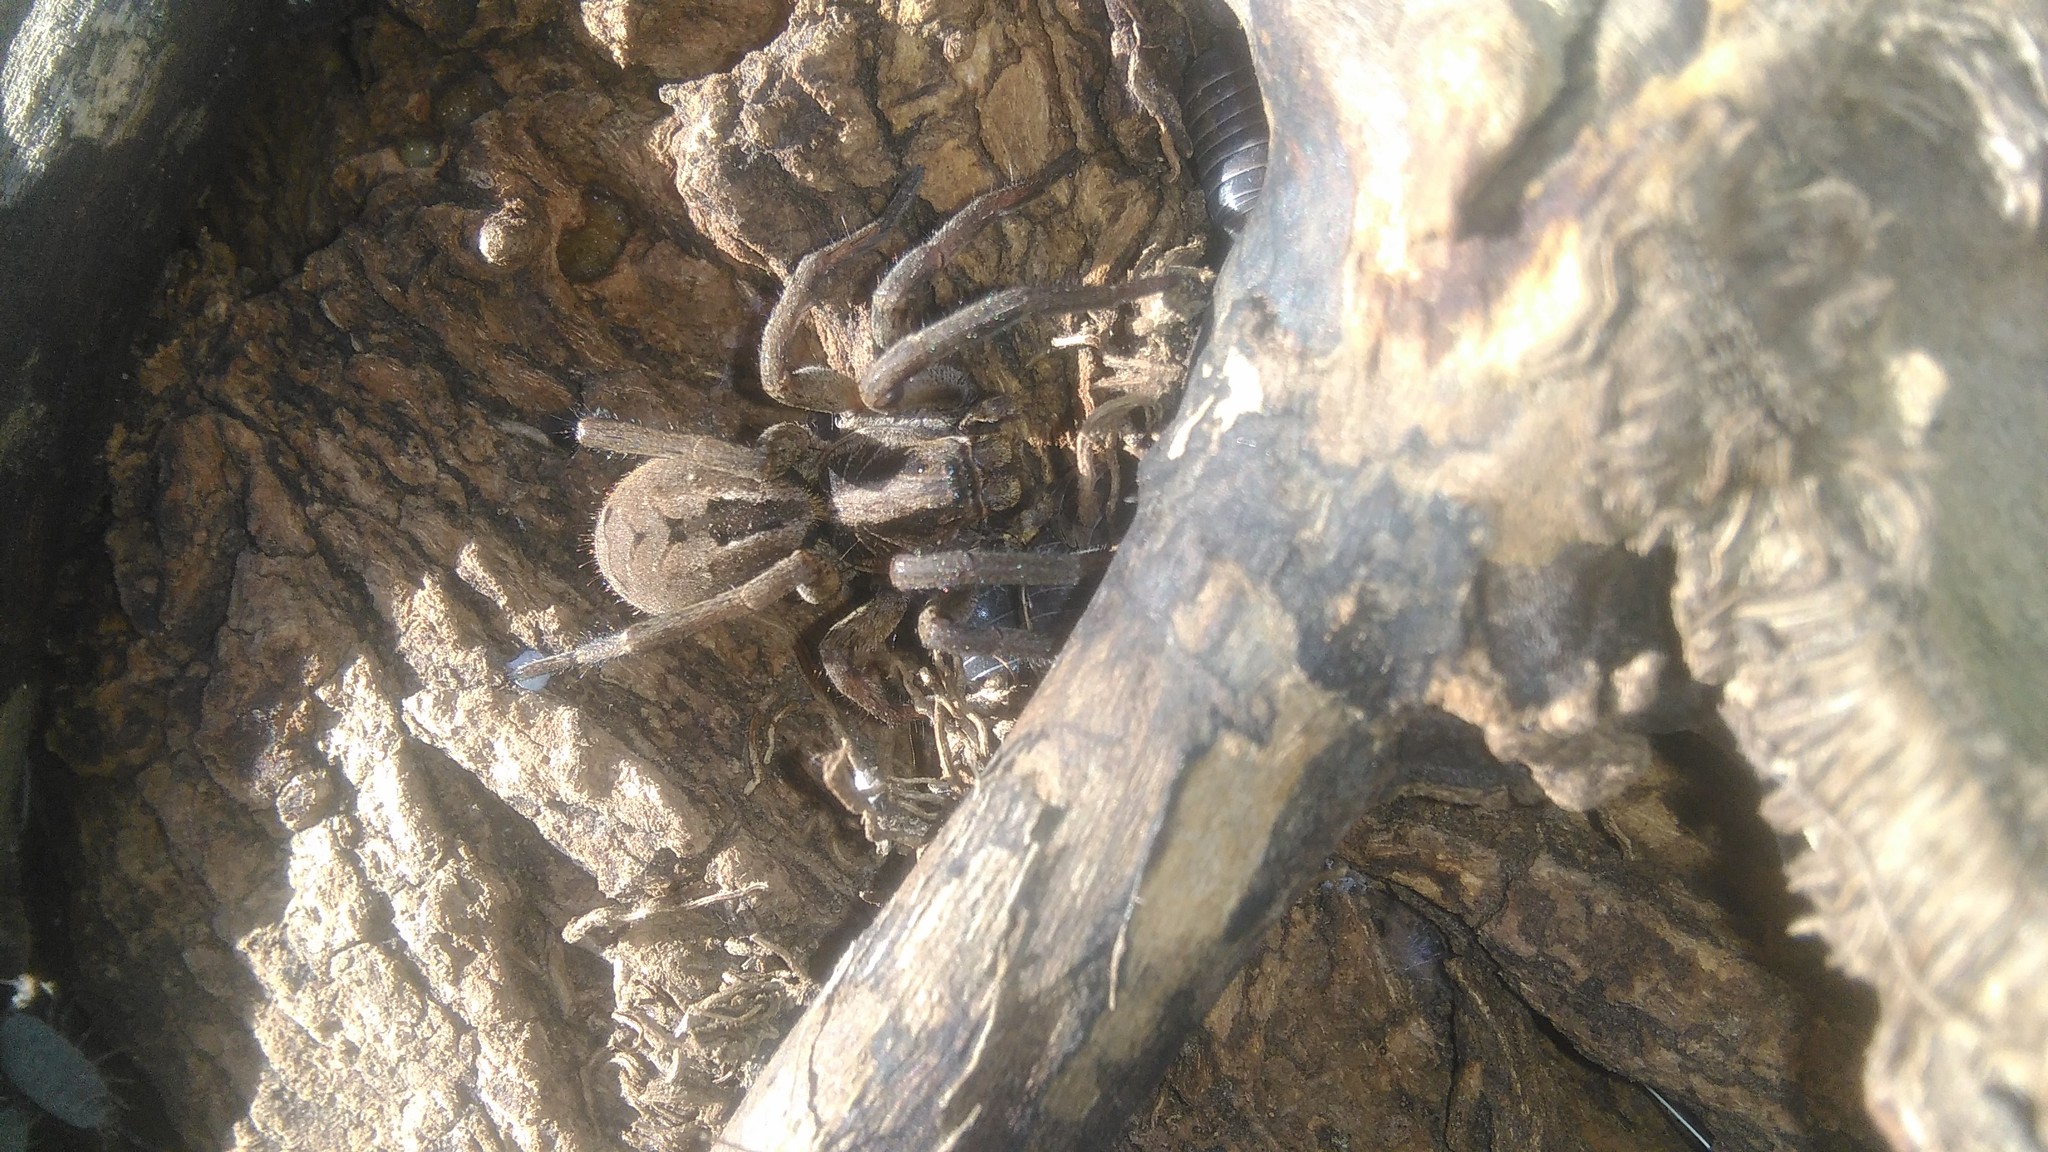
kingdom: Animalia
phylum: Arthropoda
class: Arachnida
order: Araneae
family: Lycosidae
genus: Lycosa
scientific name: Lycosa erythrognatha
